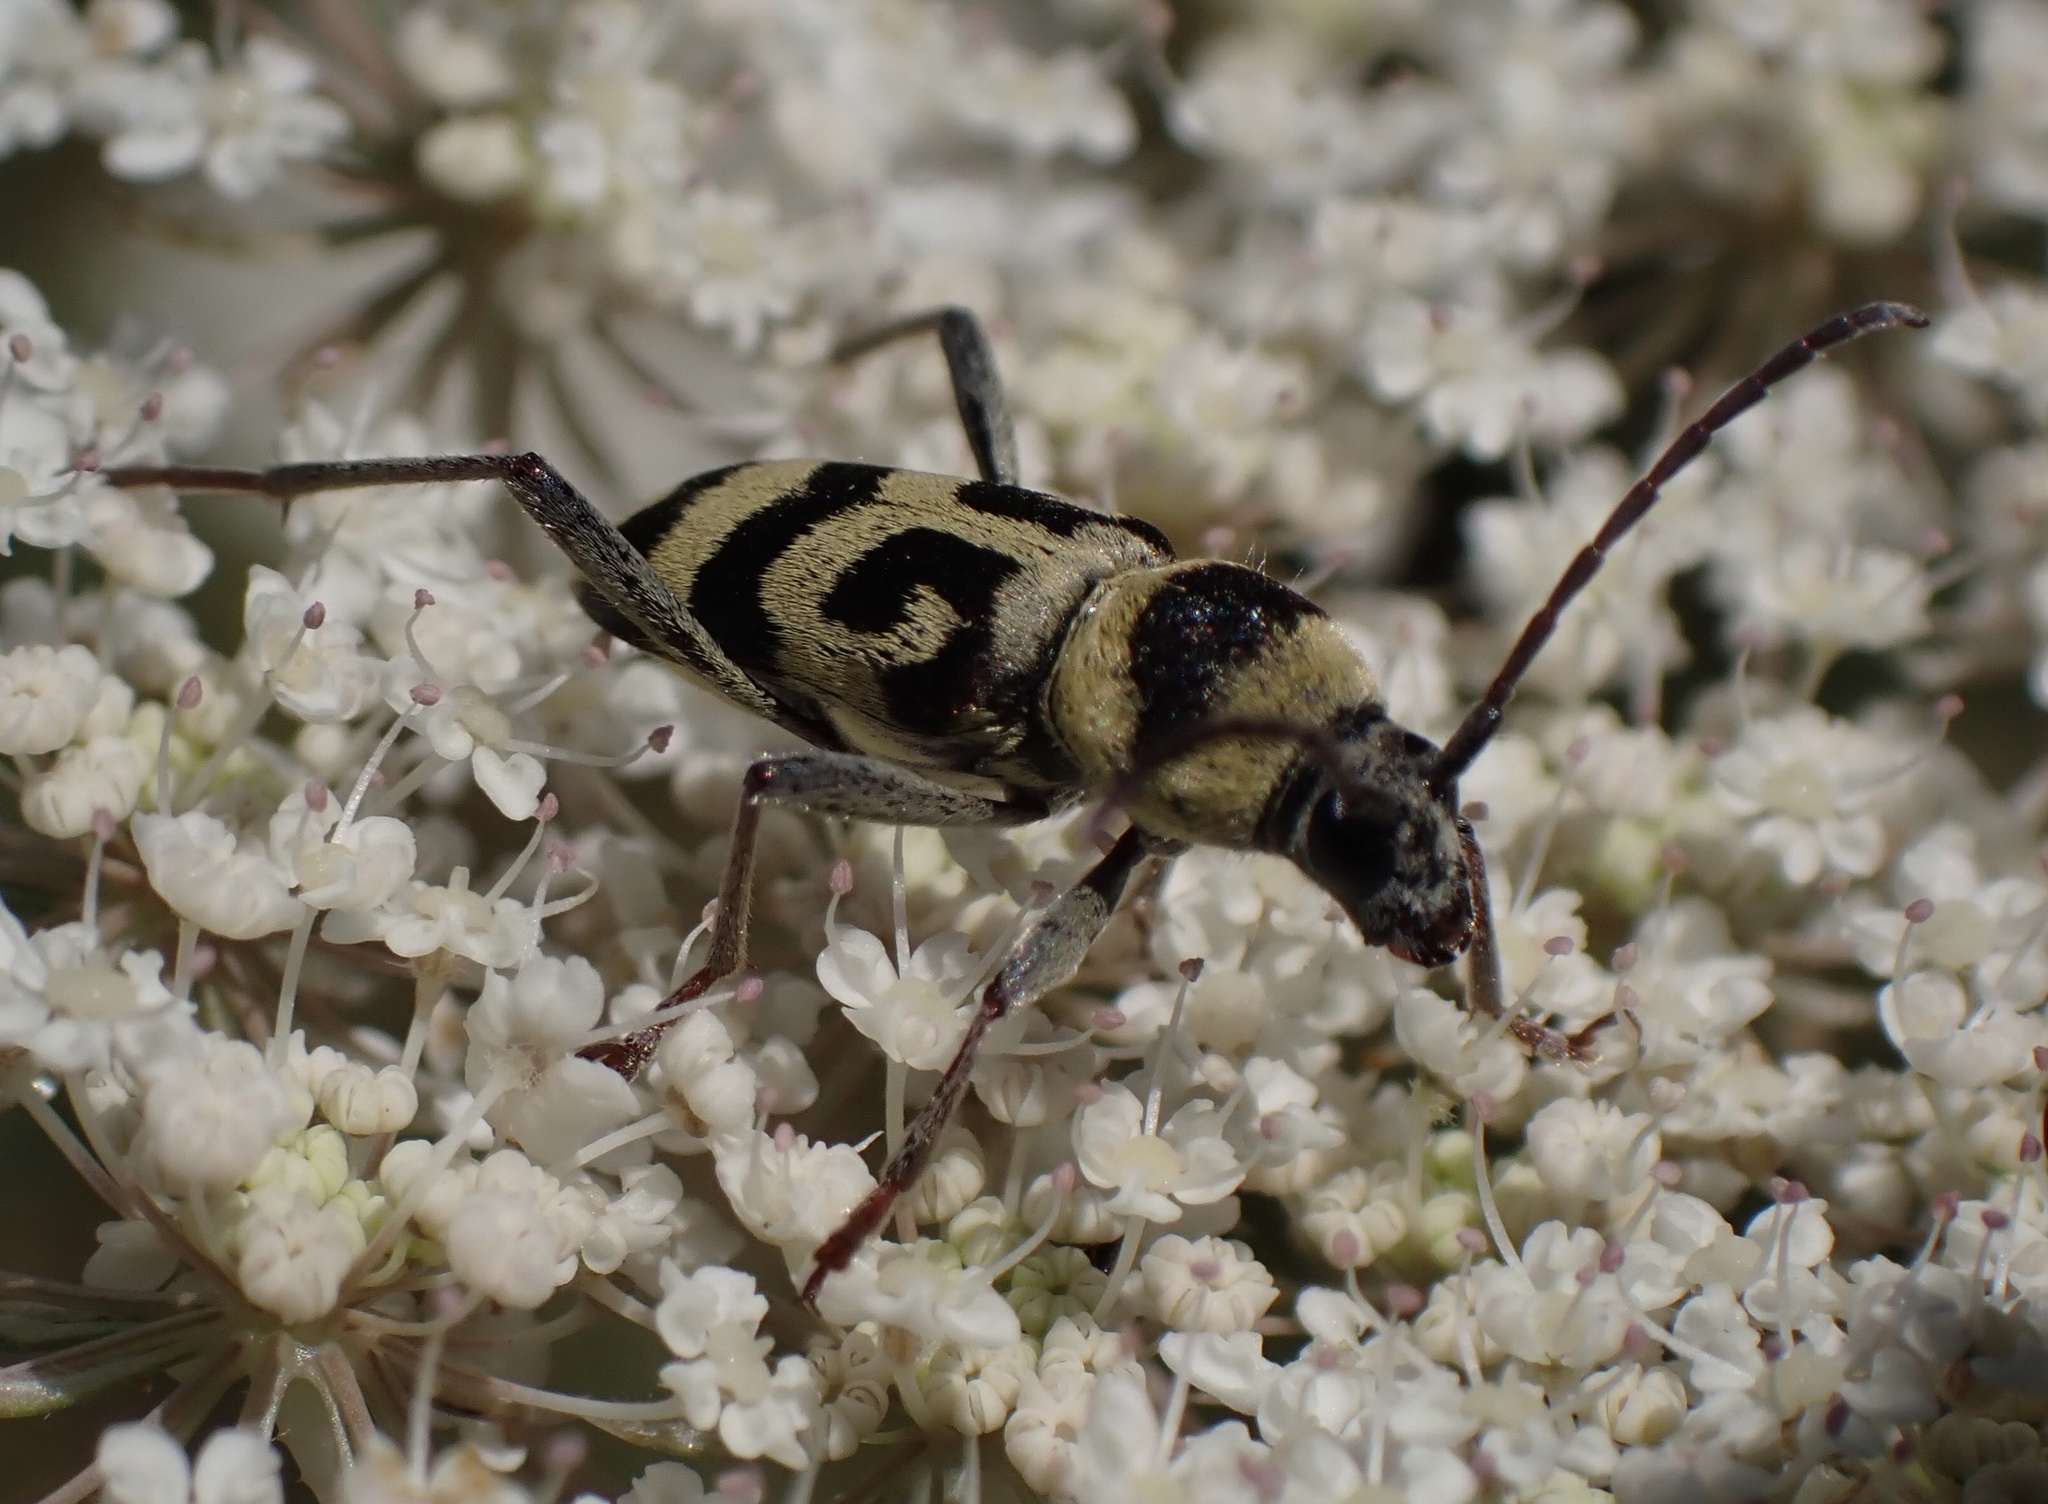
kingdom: Animalia
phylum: Arthropoda
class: Insecta
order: Coleoptera
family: Cerambycidae
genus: Chlorophorus
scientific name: Chlorophorus varius
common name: Grape wood borer
